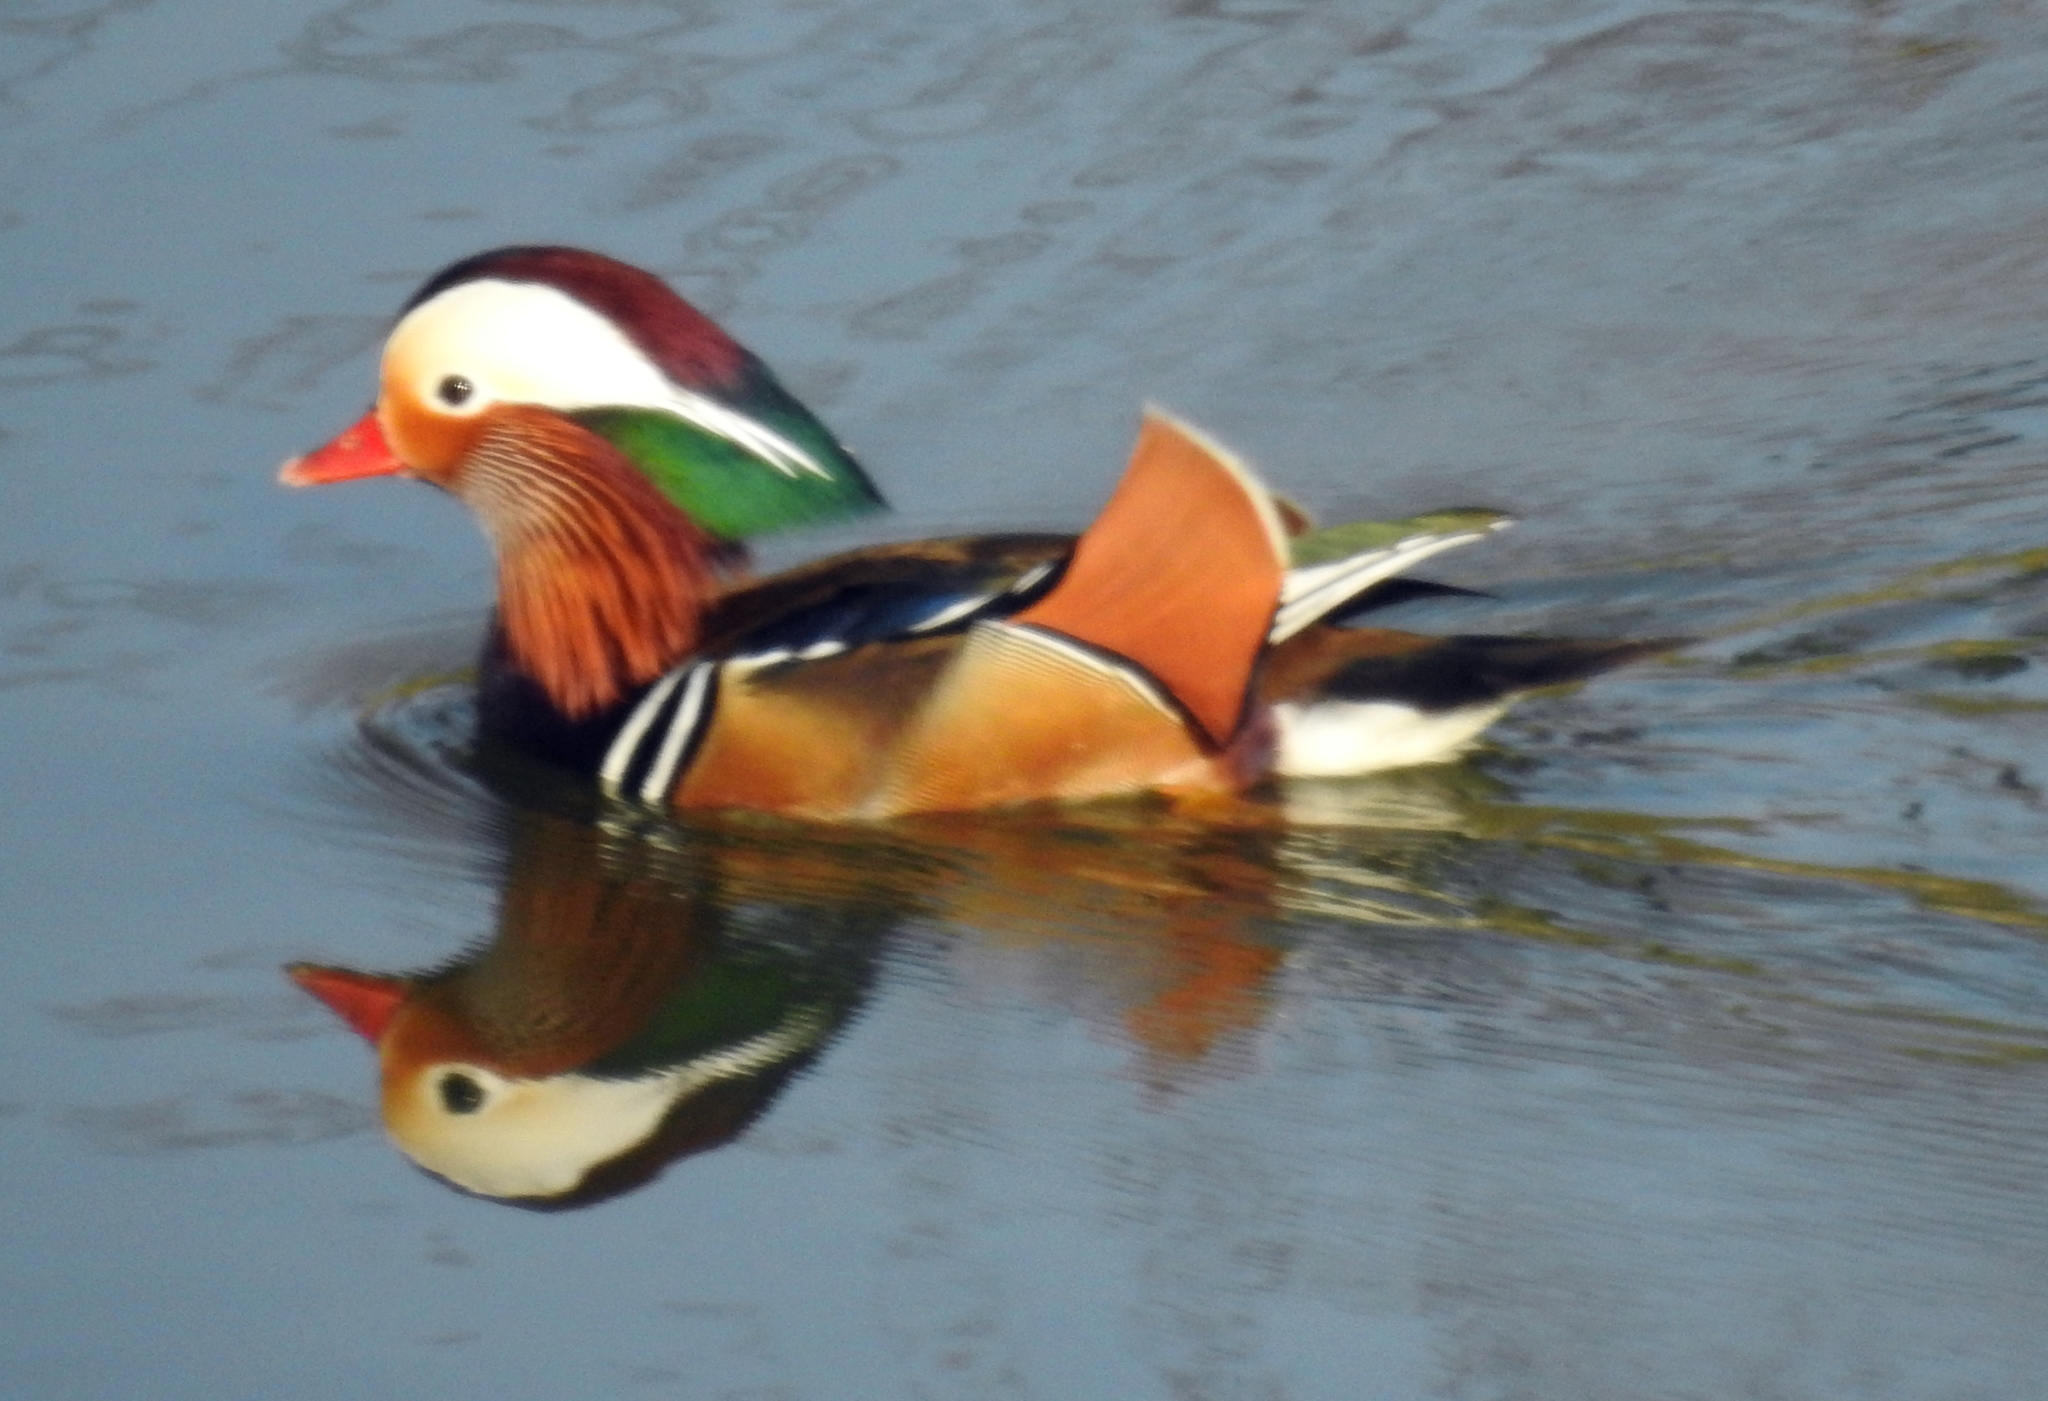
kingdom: Animalia
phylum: Chordata
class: Aves
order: Anseriformes
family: Anatidae
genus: Aix
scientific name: Aix galericulata
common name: Mandarin duck
